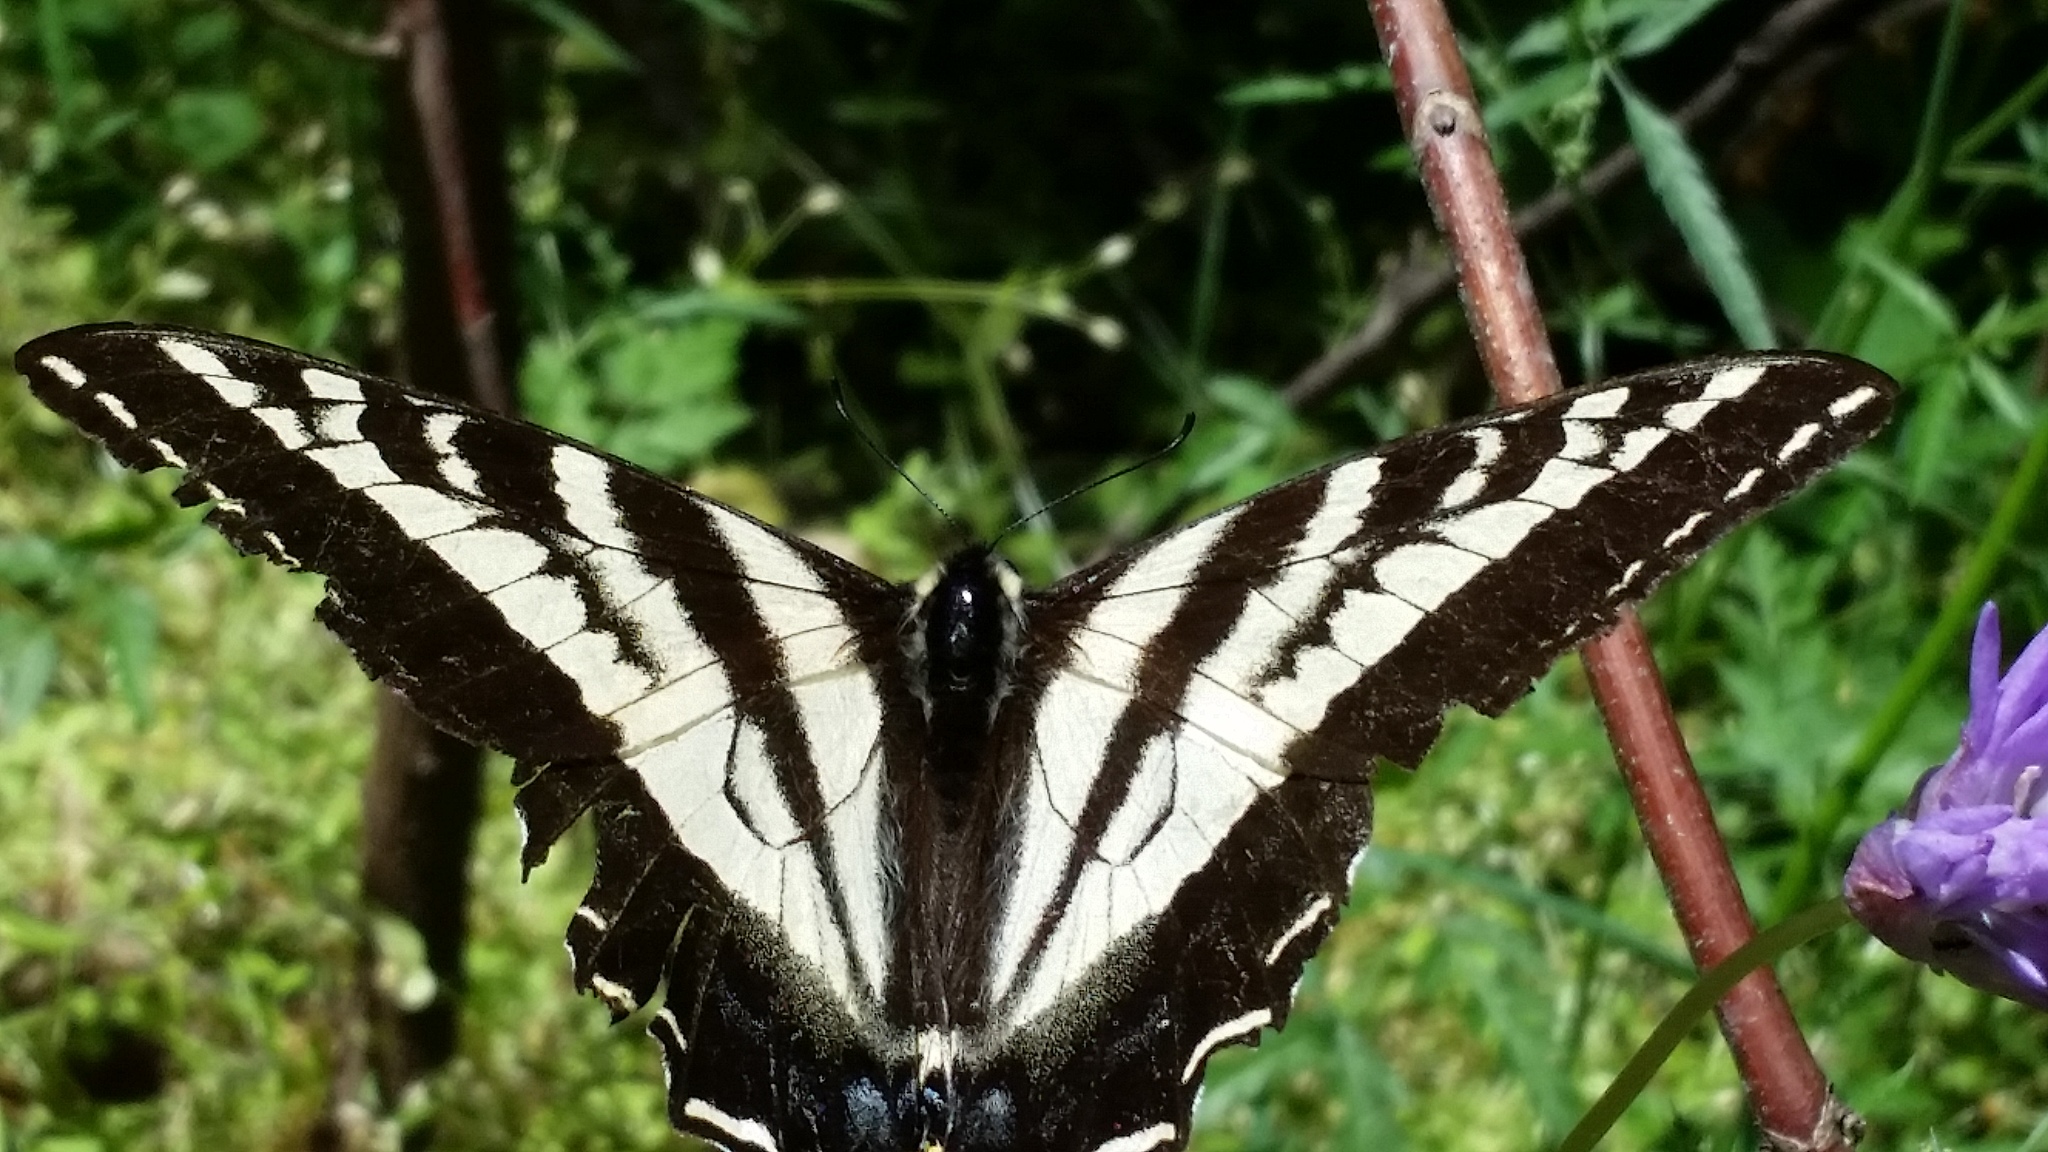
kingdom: Animalia
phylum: Arthropoda
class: Insecta
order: Lepidoptera
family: Papilionidae
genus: Papilio
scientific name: Papilio eurymedon
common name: Pale tiger swallowtail
